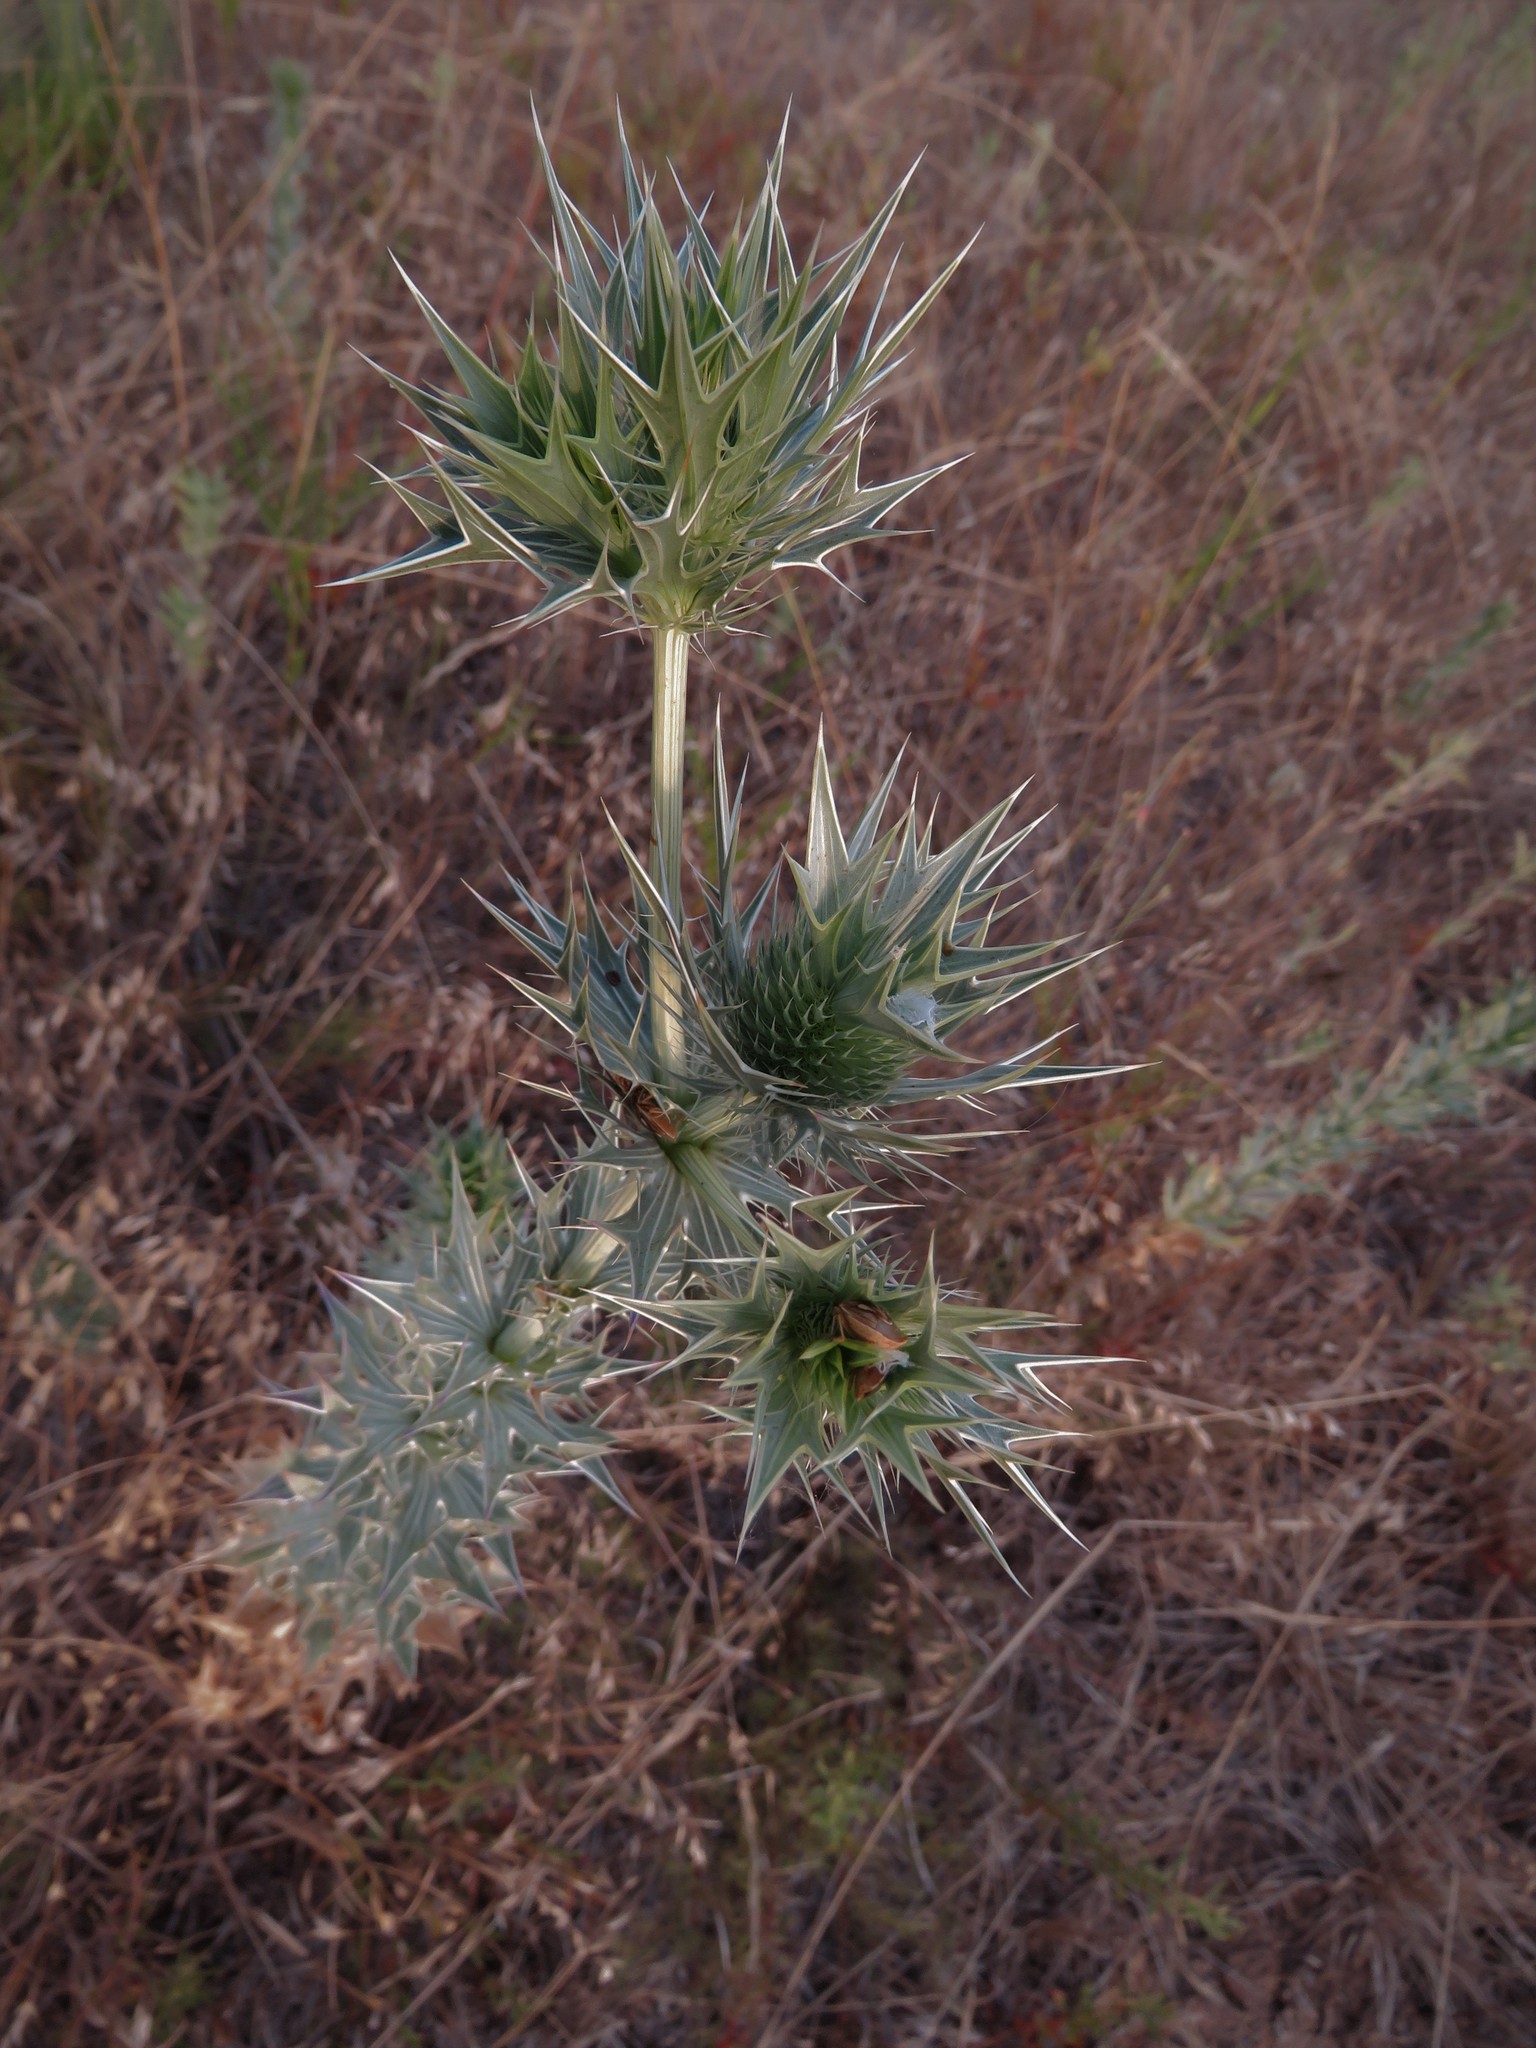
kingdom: Plantae
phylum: Tracheophyta
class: Magnoliopsida
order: Apiales
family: Apiaceae
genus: Eryngium
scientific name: Eryngium leavenworthii
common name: Leavenworth's eryngo
